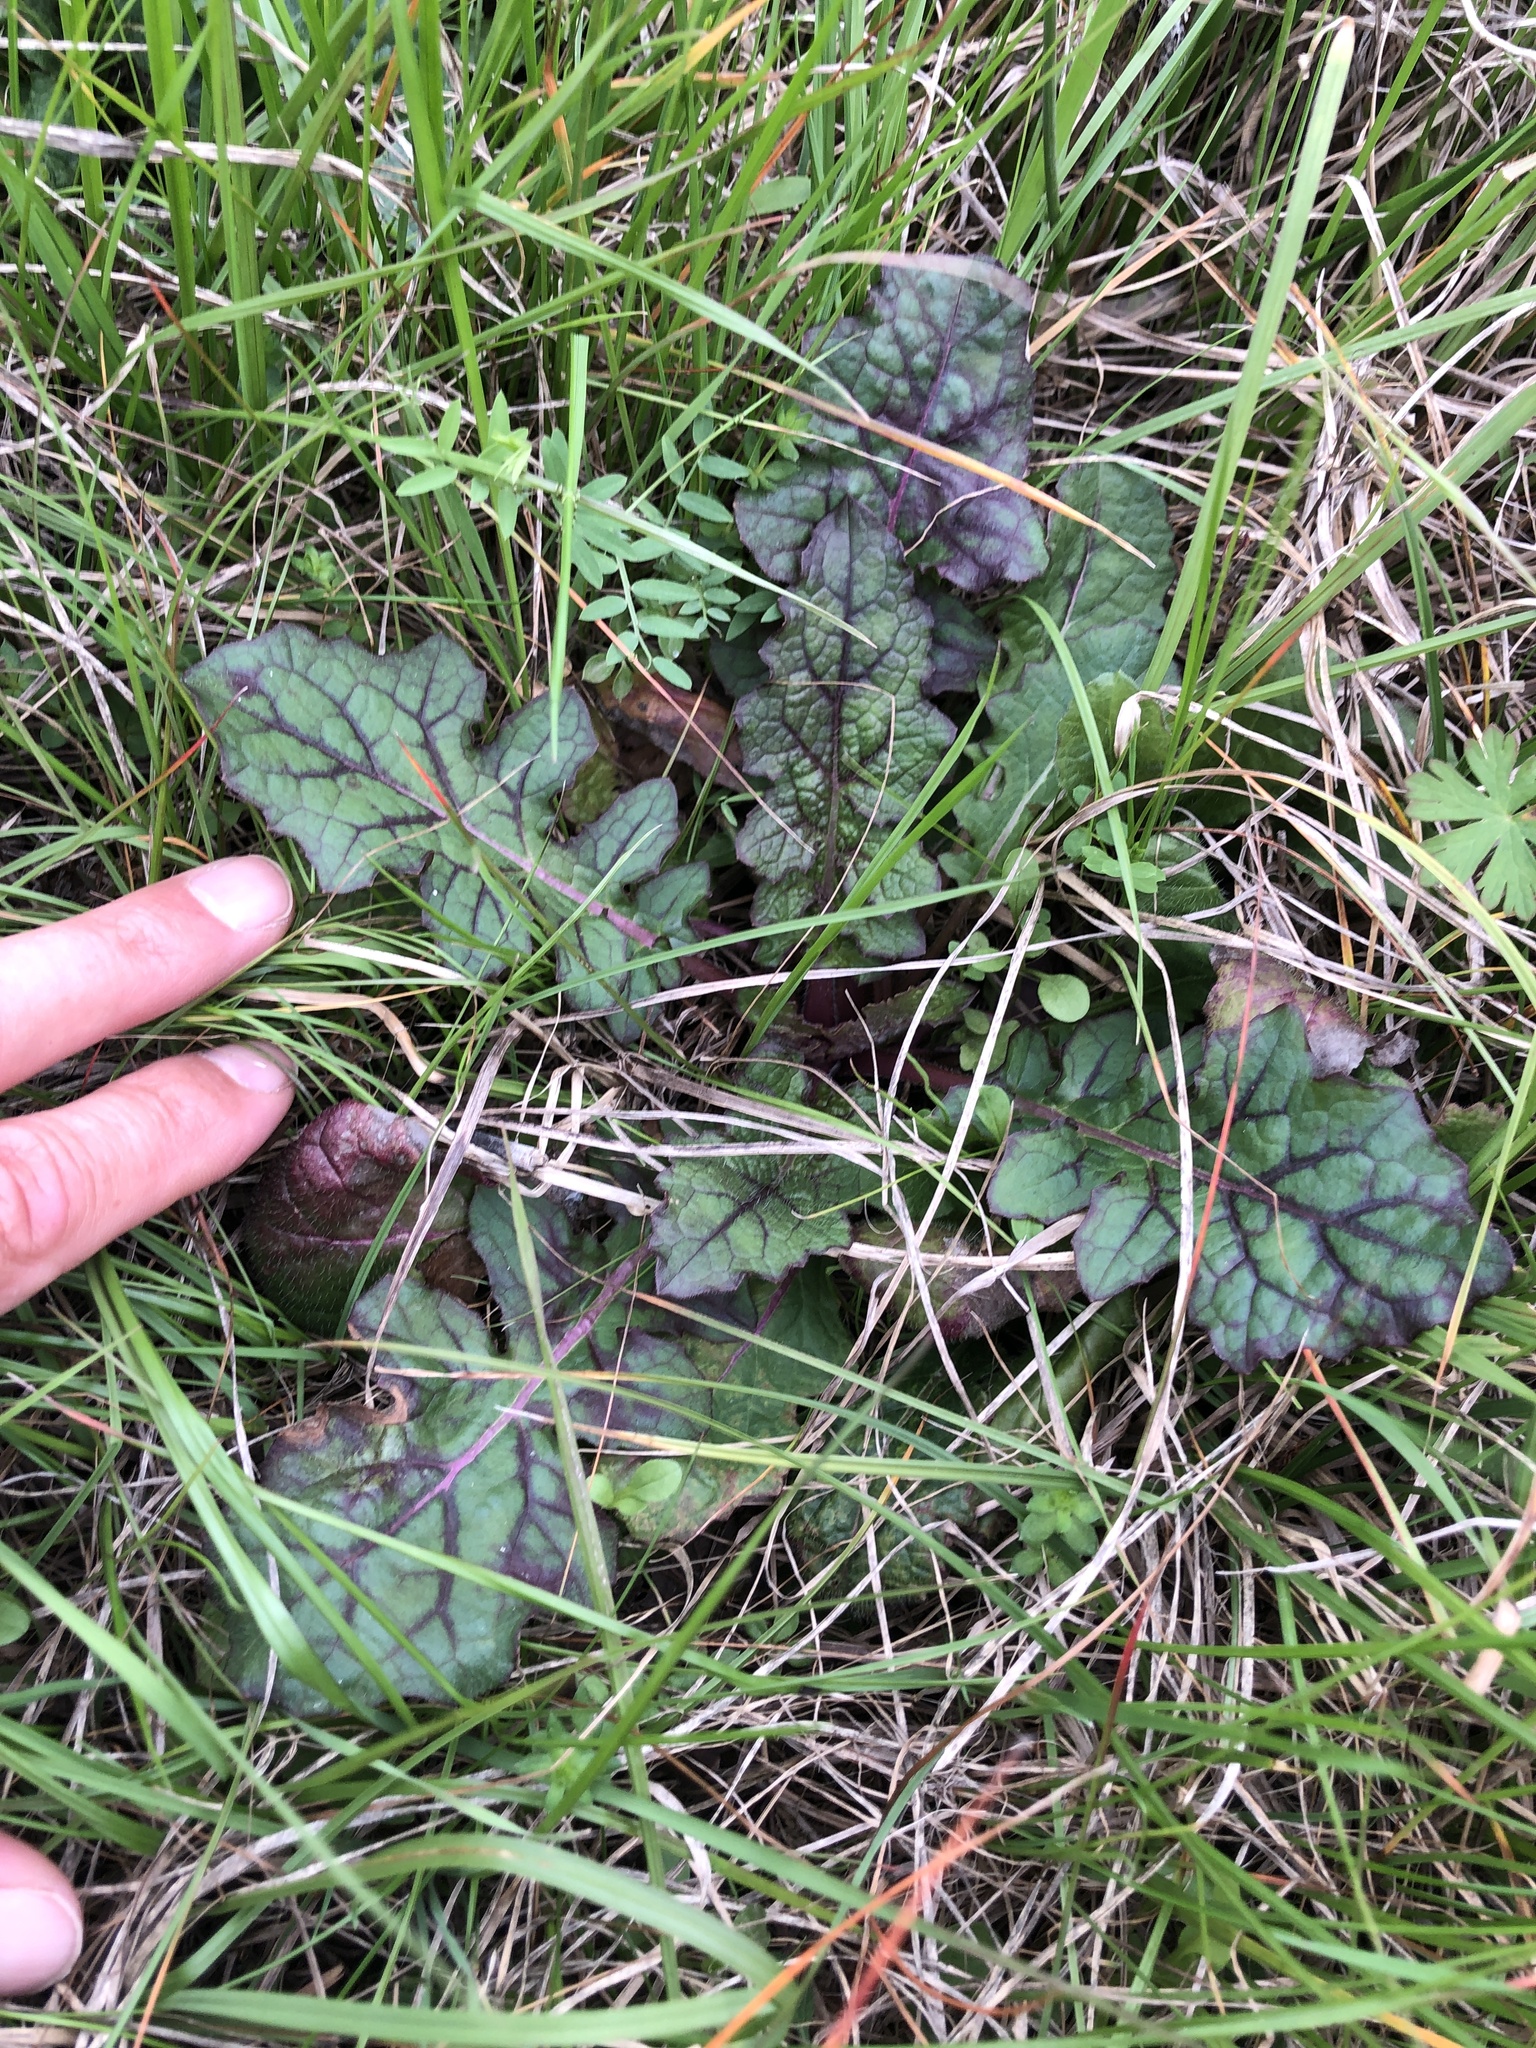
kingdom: Plantae
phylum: Tracheophyta
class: Magnoliopsida
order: Lamiales
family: Lamiaceae
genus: Salvia
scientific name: Salvia lyrata
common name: Cancerweed
